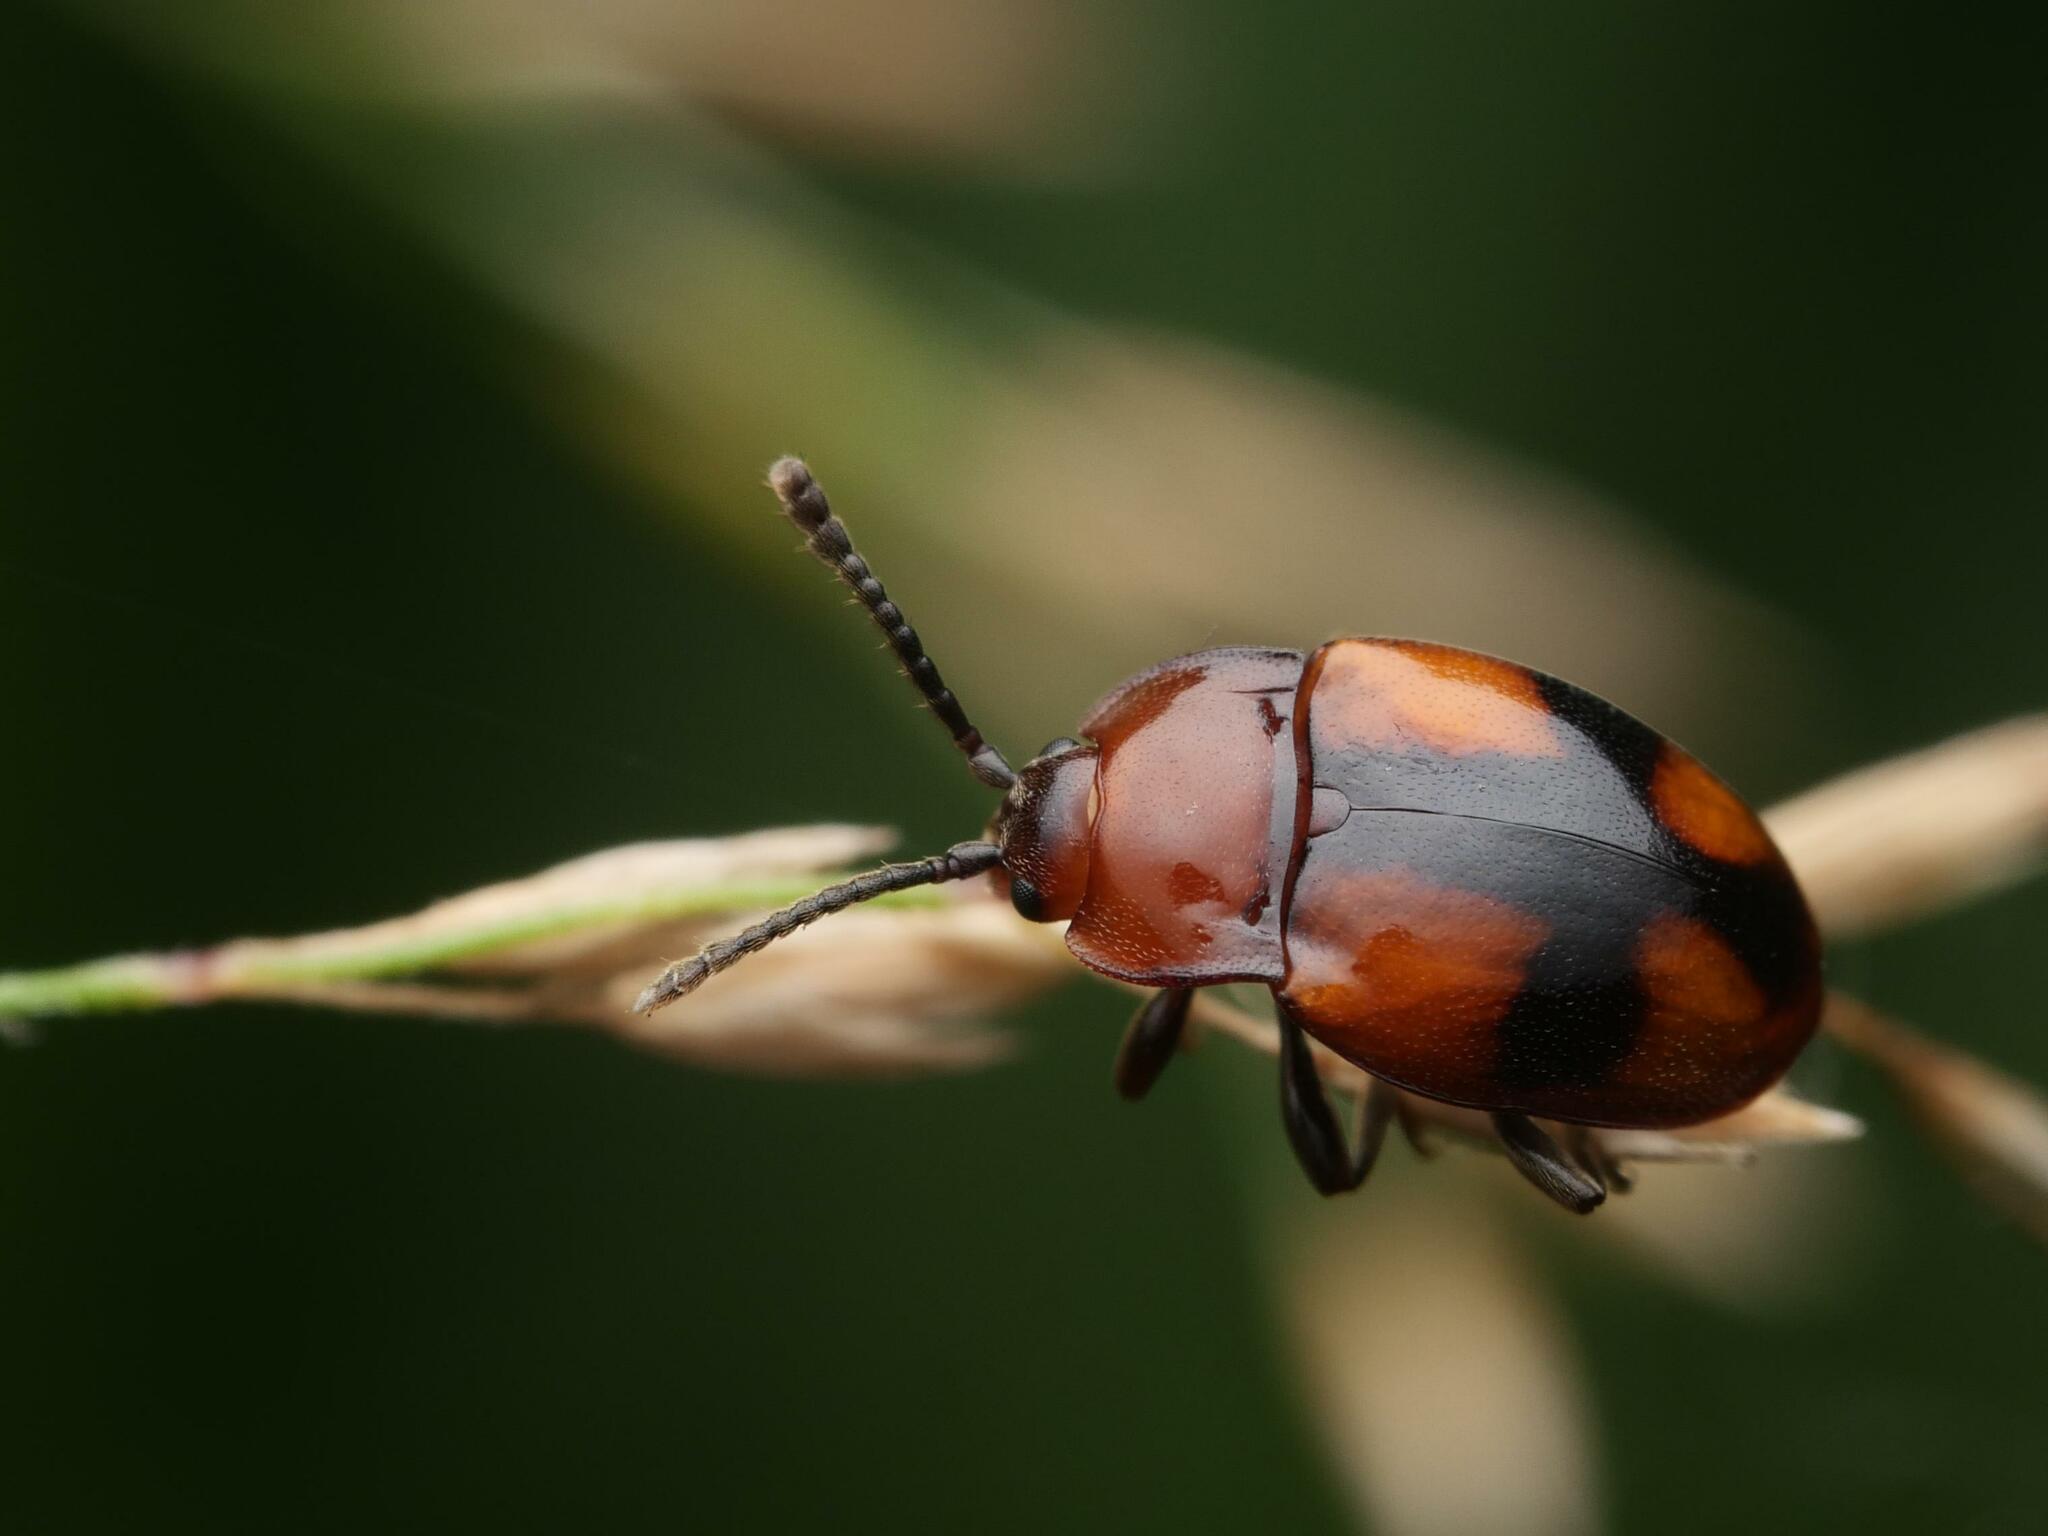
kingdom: Animalia
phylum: Arthropoda
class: Insecta
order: Coleoptera
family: Endomychidae
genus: Mycetina
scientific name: Mycetina cruciata
